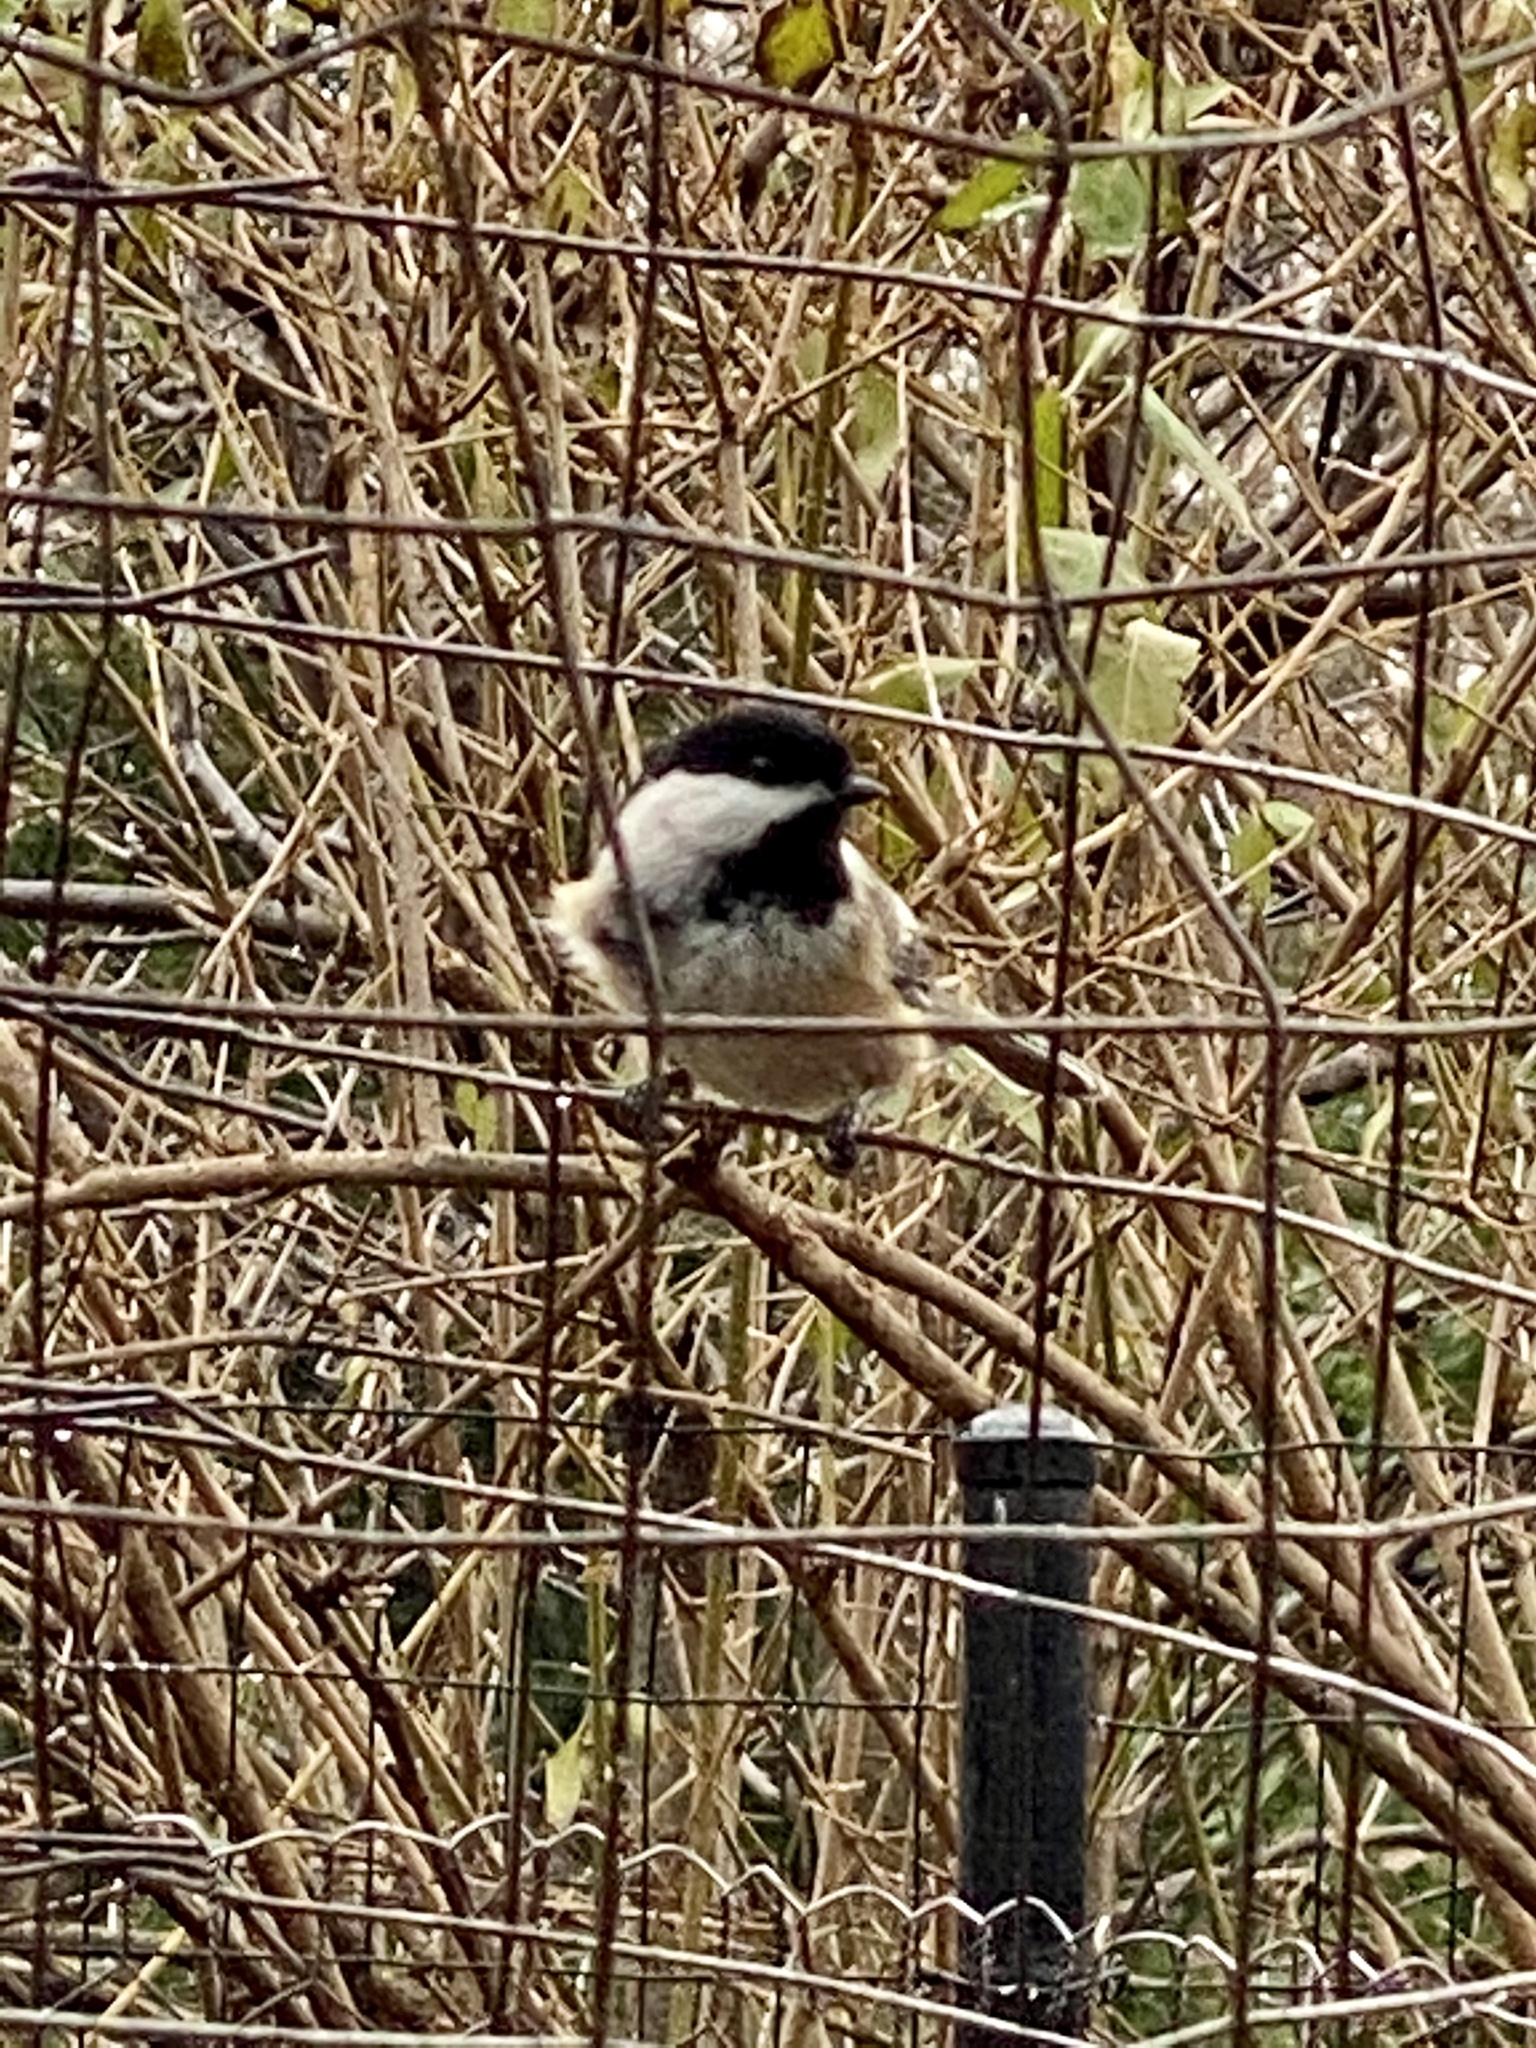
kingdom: Animalia
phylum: Chordata
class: Aves
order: Passeriformes
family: Paridae
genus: Poecile
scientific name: Poecile atricapillus
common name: Black-capped chickadee
